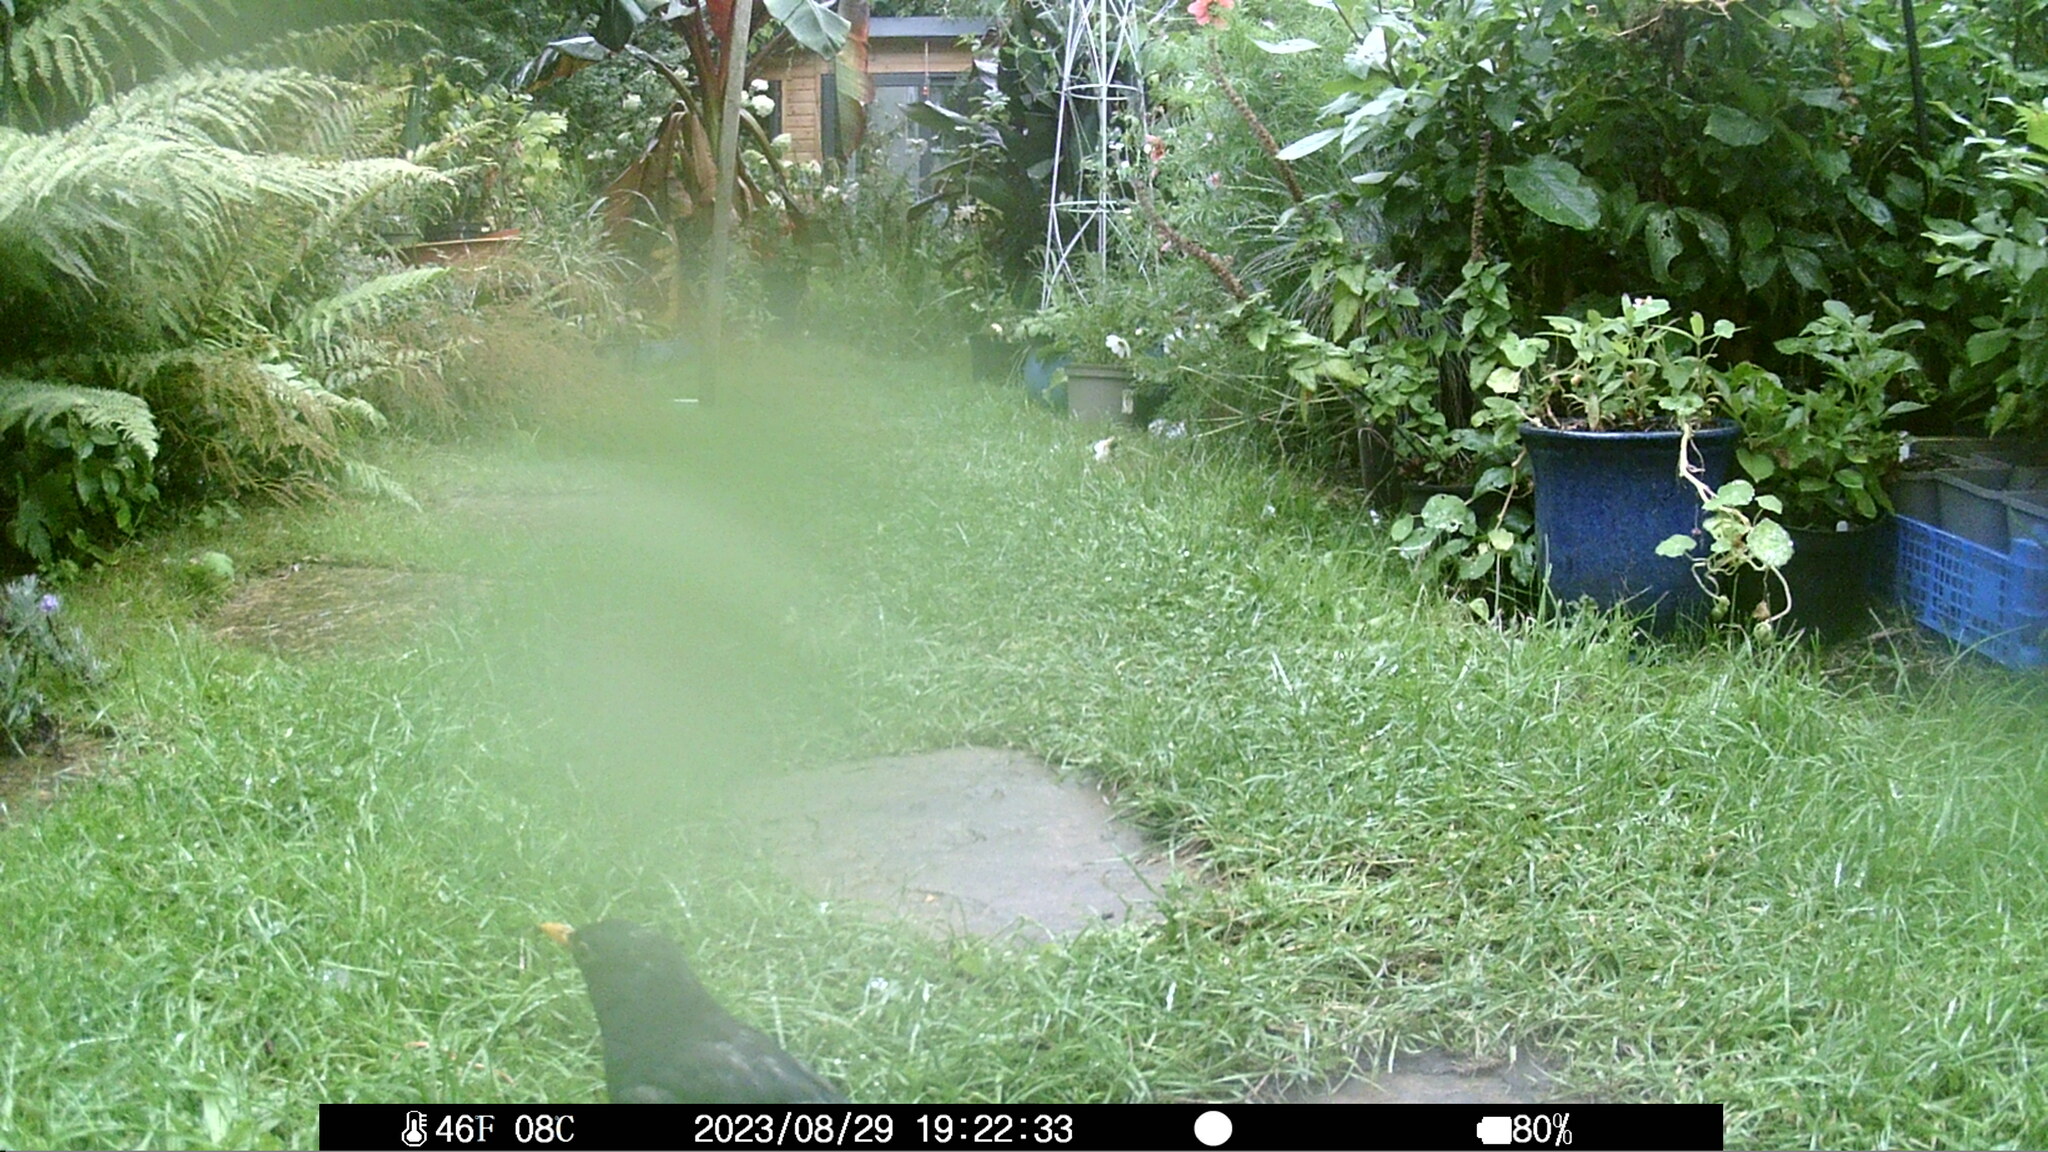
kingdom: Animalia
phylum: Chordata
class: Aves
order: Passeriformes
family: Turdidae
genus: Turdus
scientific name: Turdus merula
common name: Common blackbird
